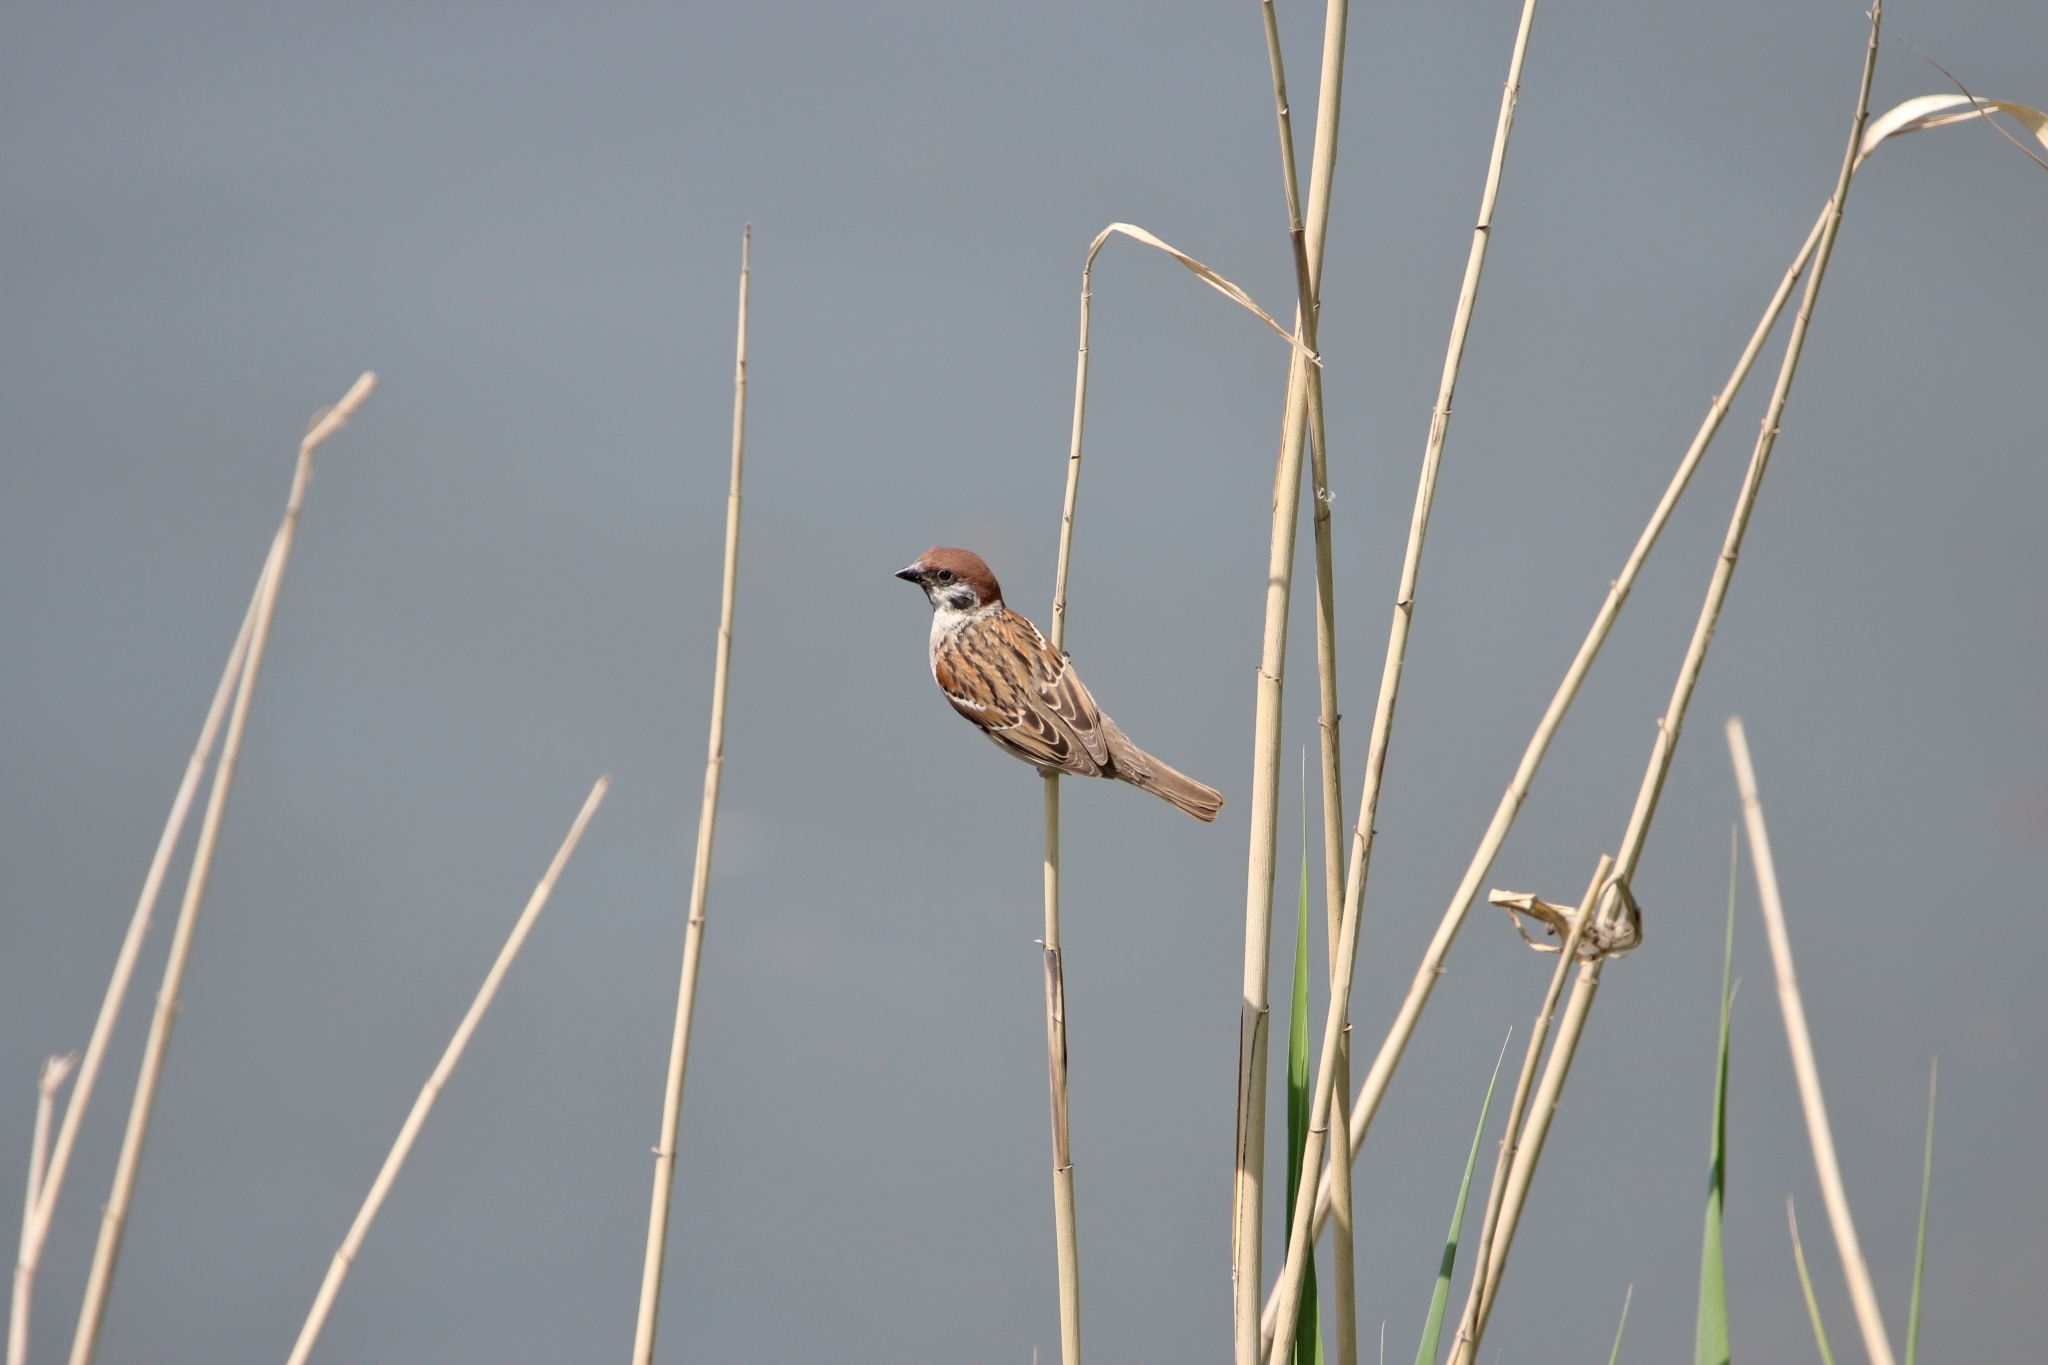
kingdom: Animalia
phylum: Chordata
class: Aves
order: Passeriformes
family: Passeridae
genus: Passer
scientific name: Passer montanus
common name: Eurasian tree sparrow
